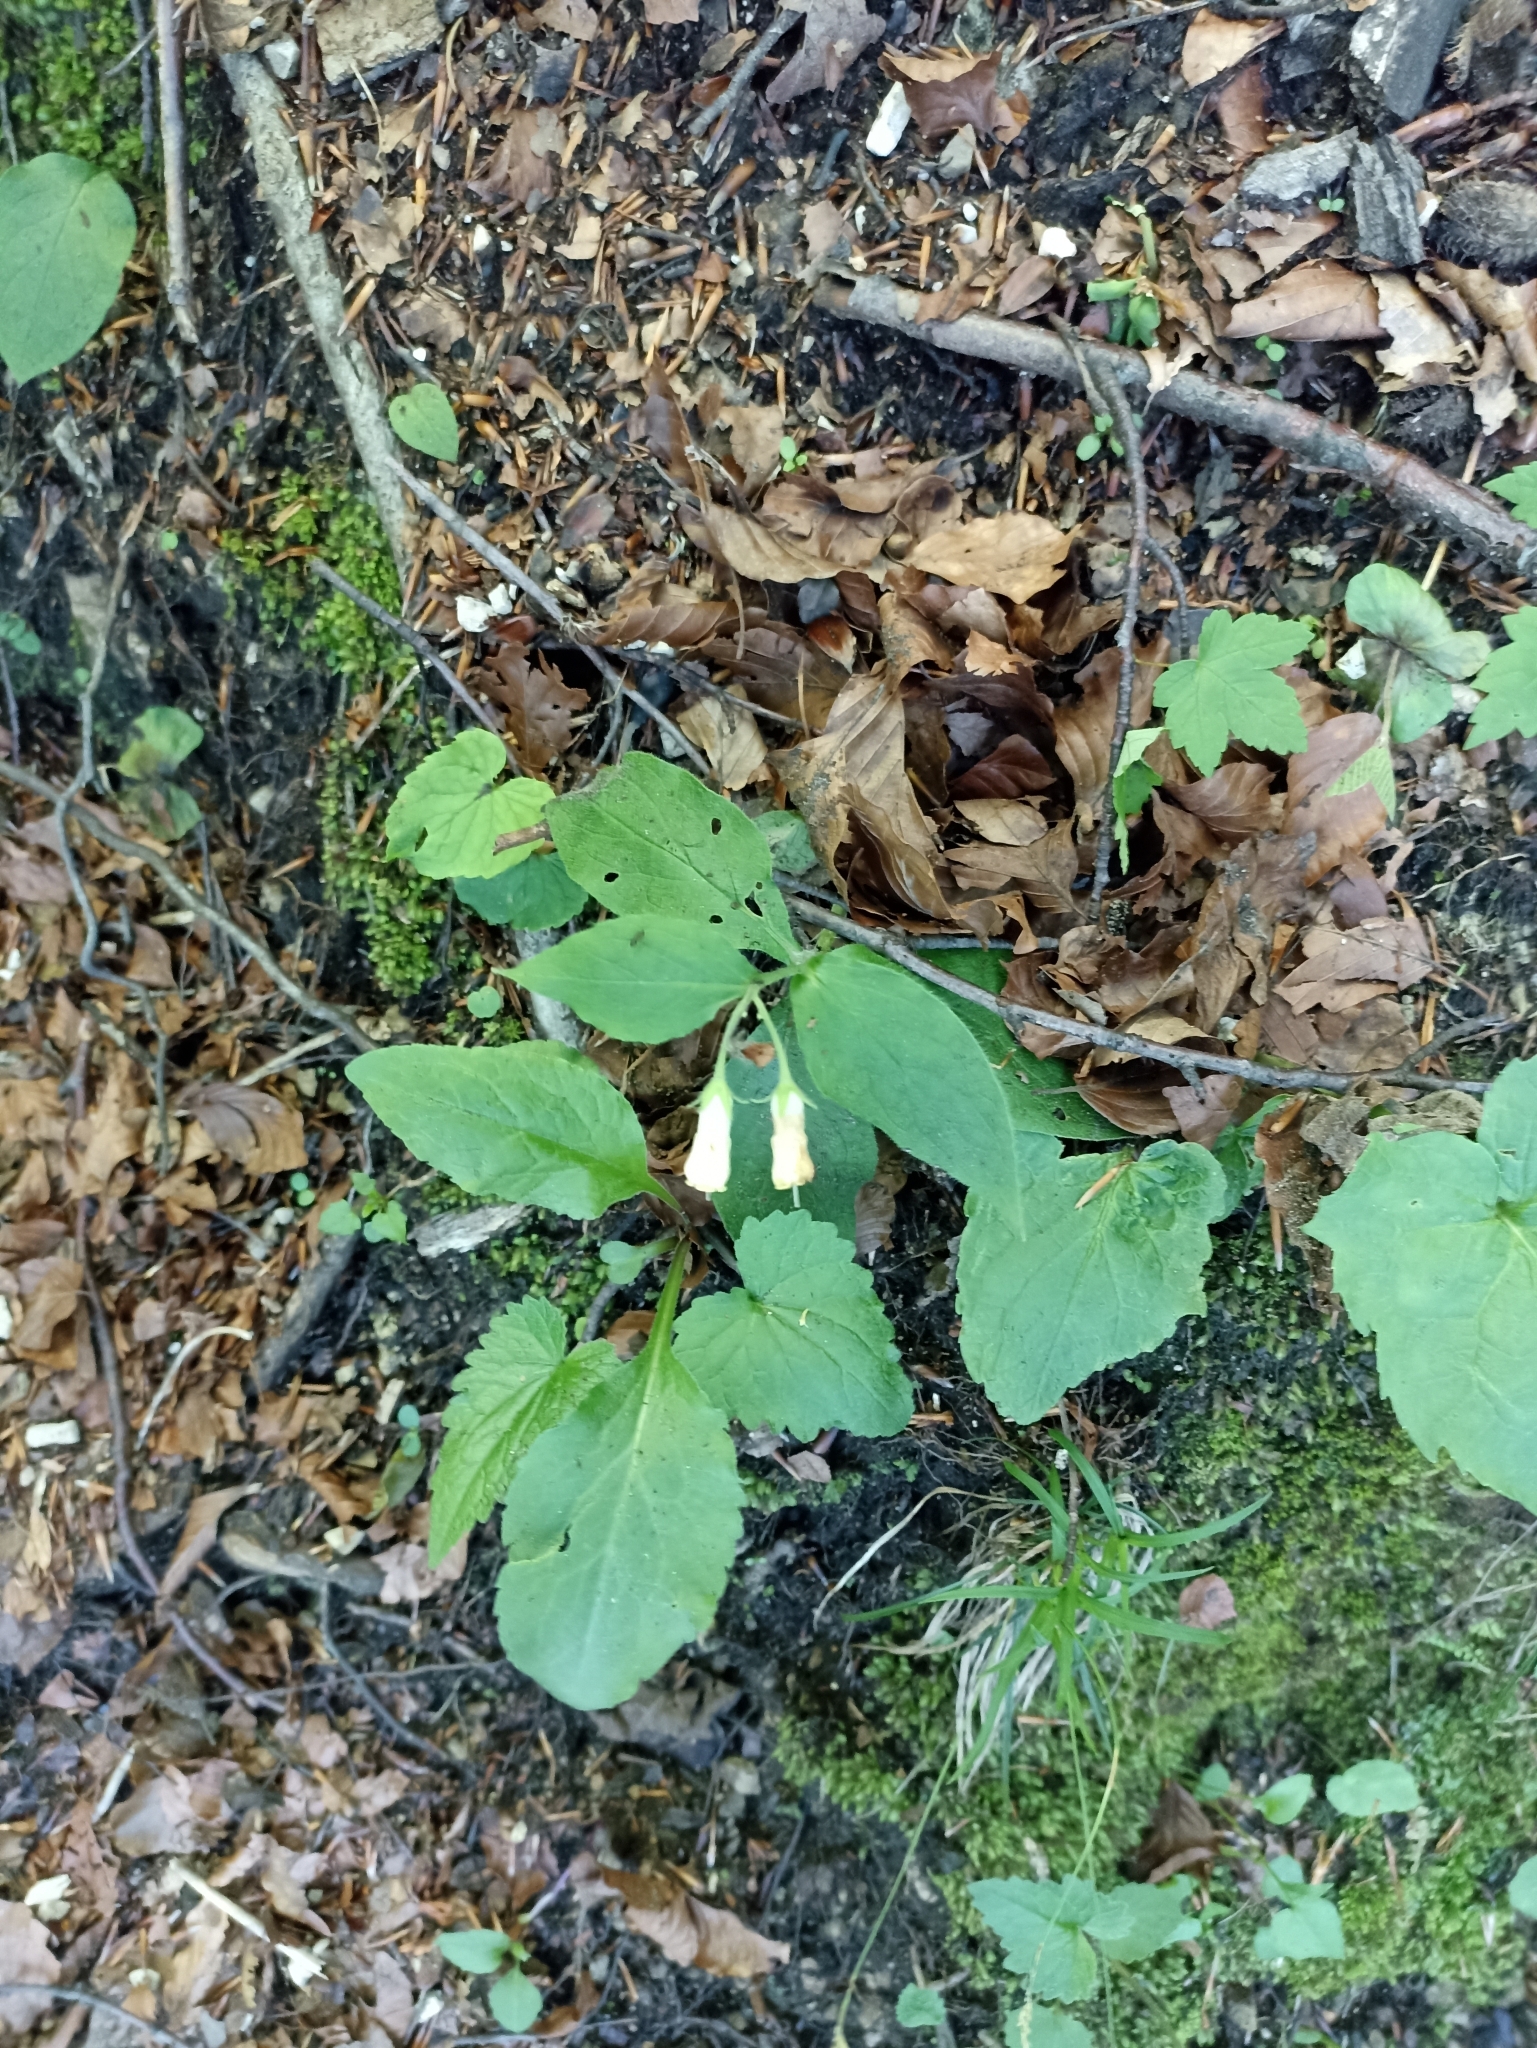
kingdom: Plantae
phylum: Tracheophyta
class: Magnoliopsida
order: Boraginales
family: Boraginaceae
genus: Symphytum
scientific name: Symphytum tuberosum
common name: Tuberous comfrey
